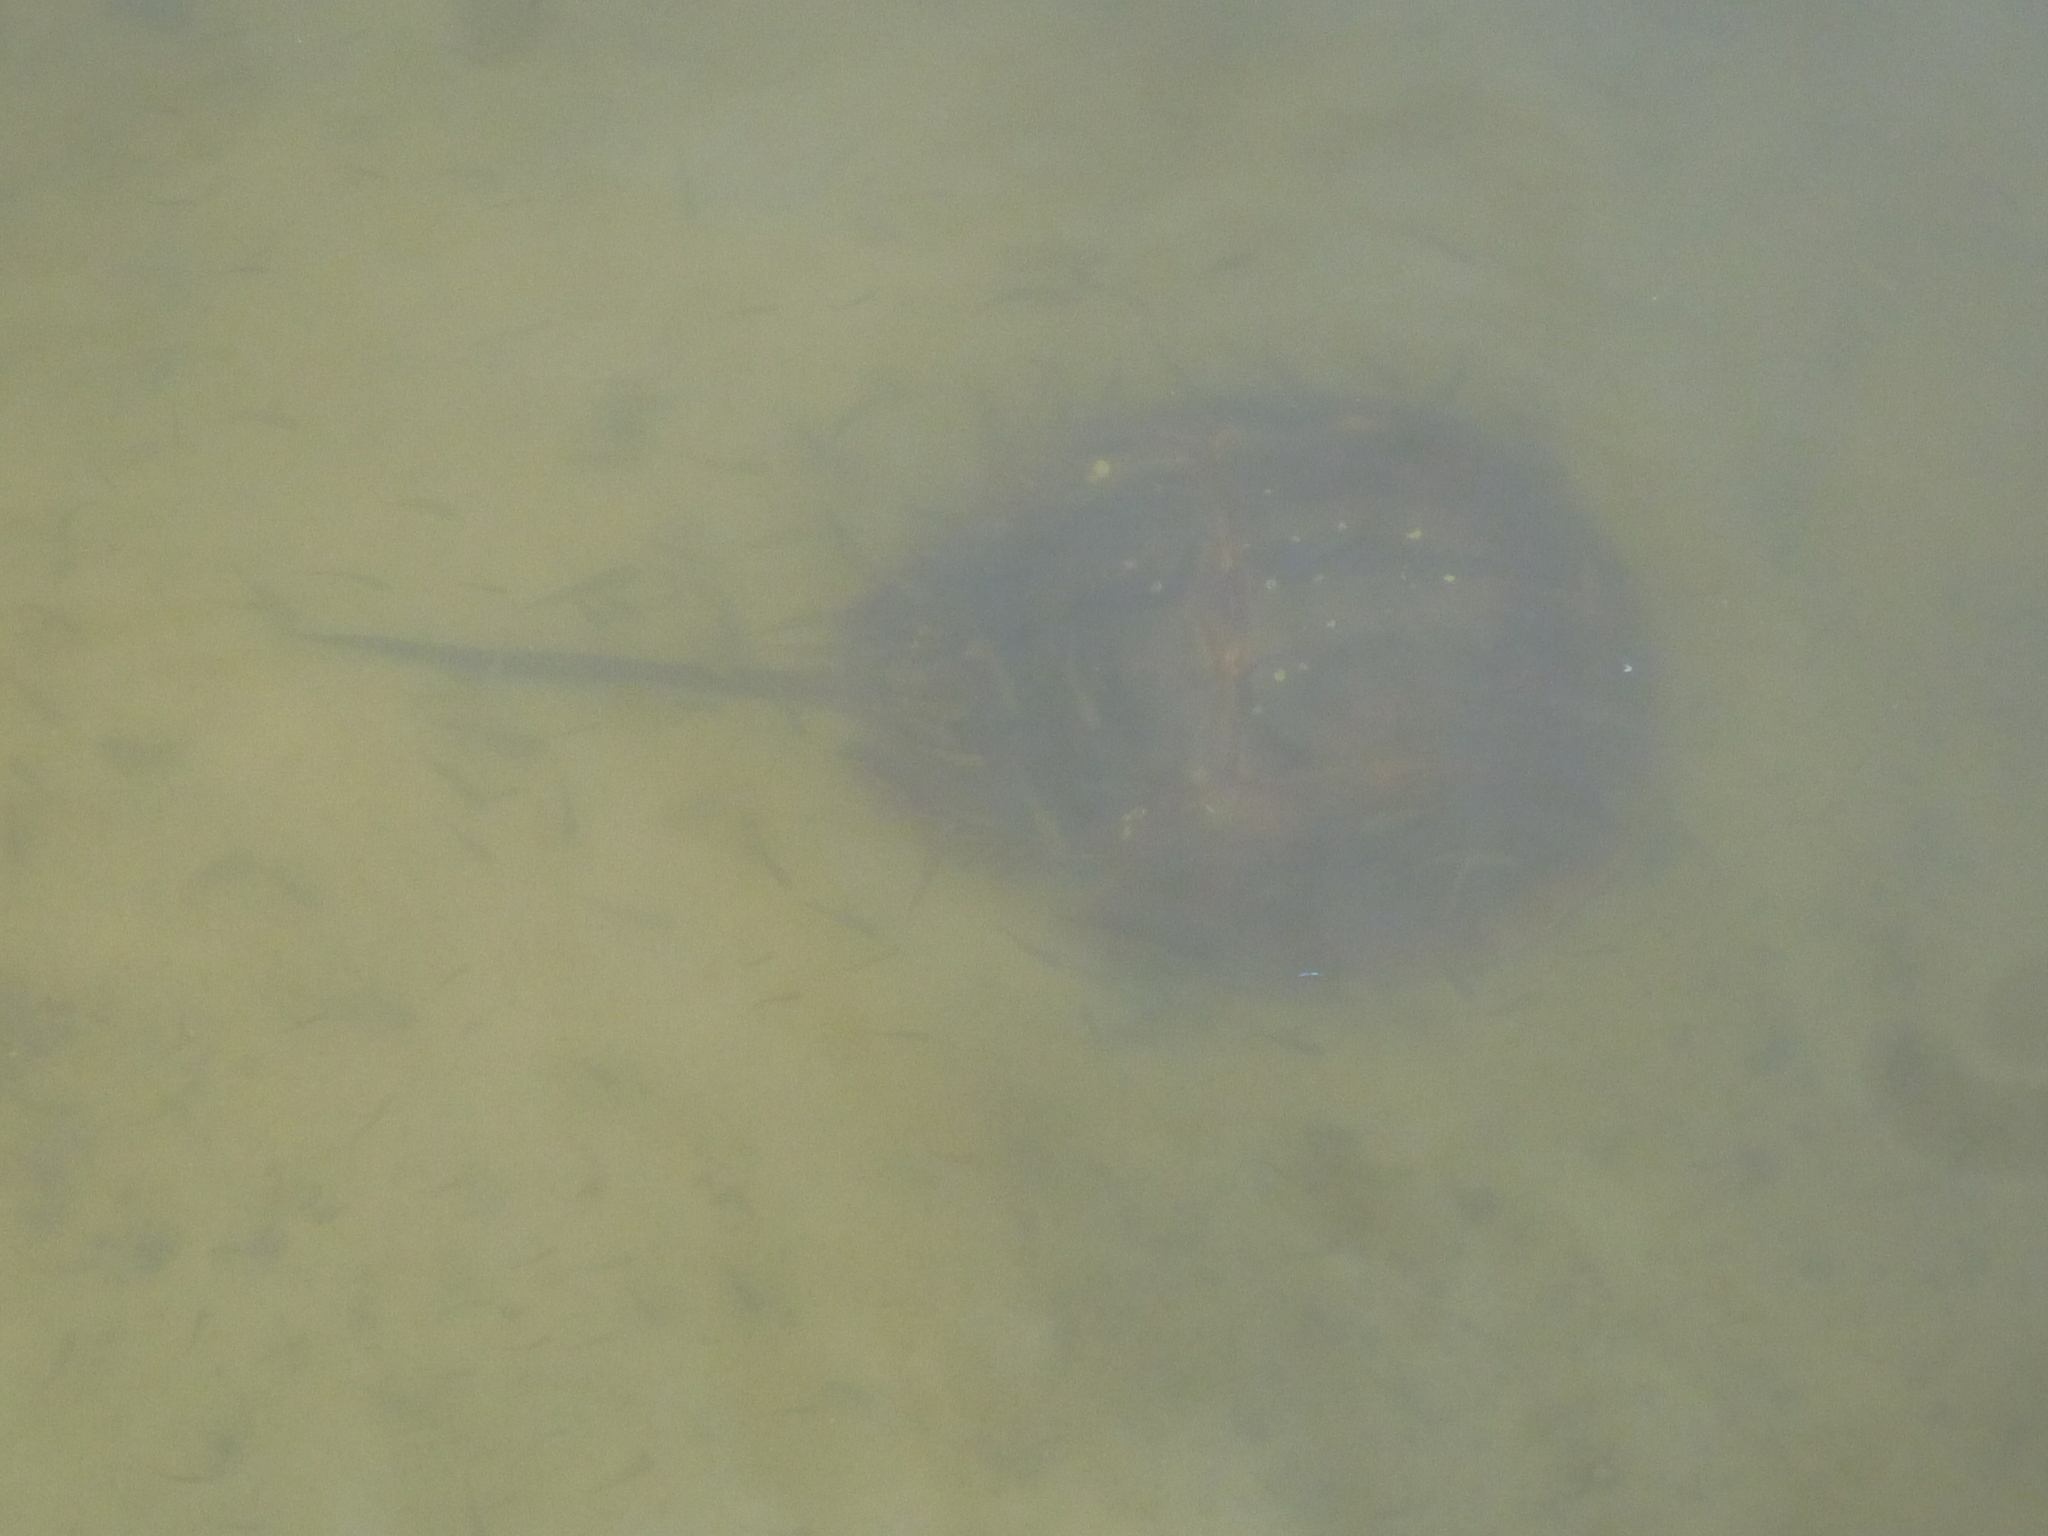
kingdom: Animalia
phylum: Arthropoda
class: Merostomata
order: Xiphosurida
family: Limulidae
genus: Limulus
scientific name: Limulus polyphemus
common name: Horseshoe crab
